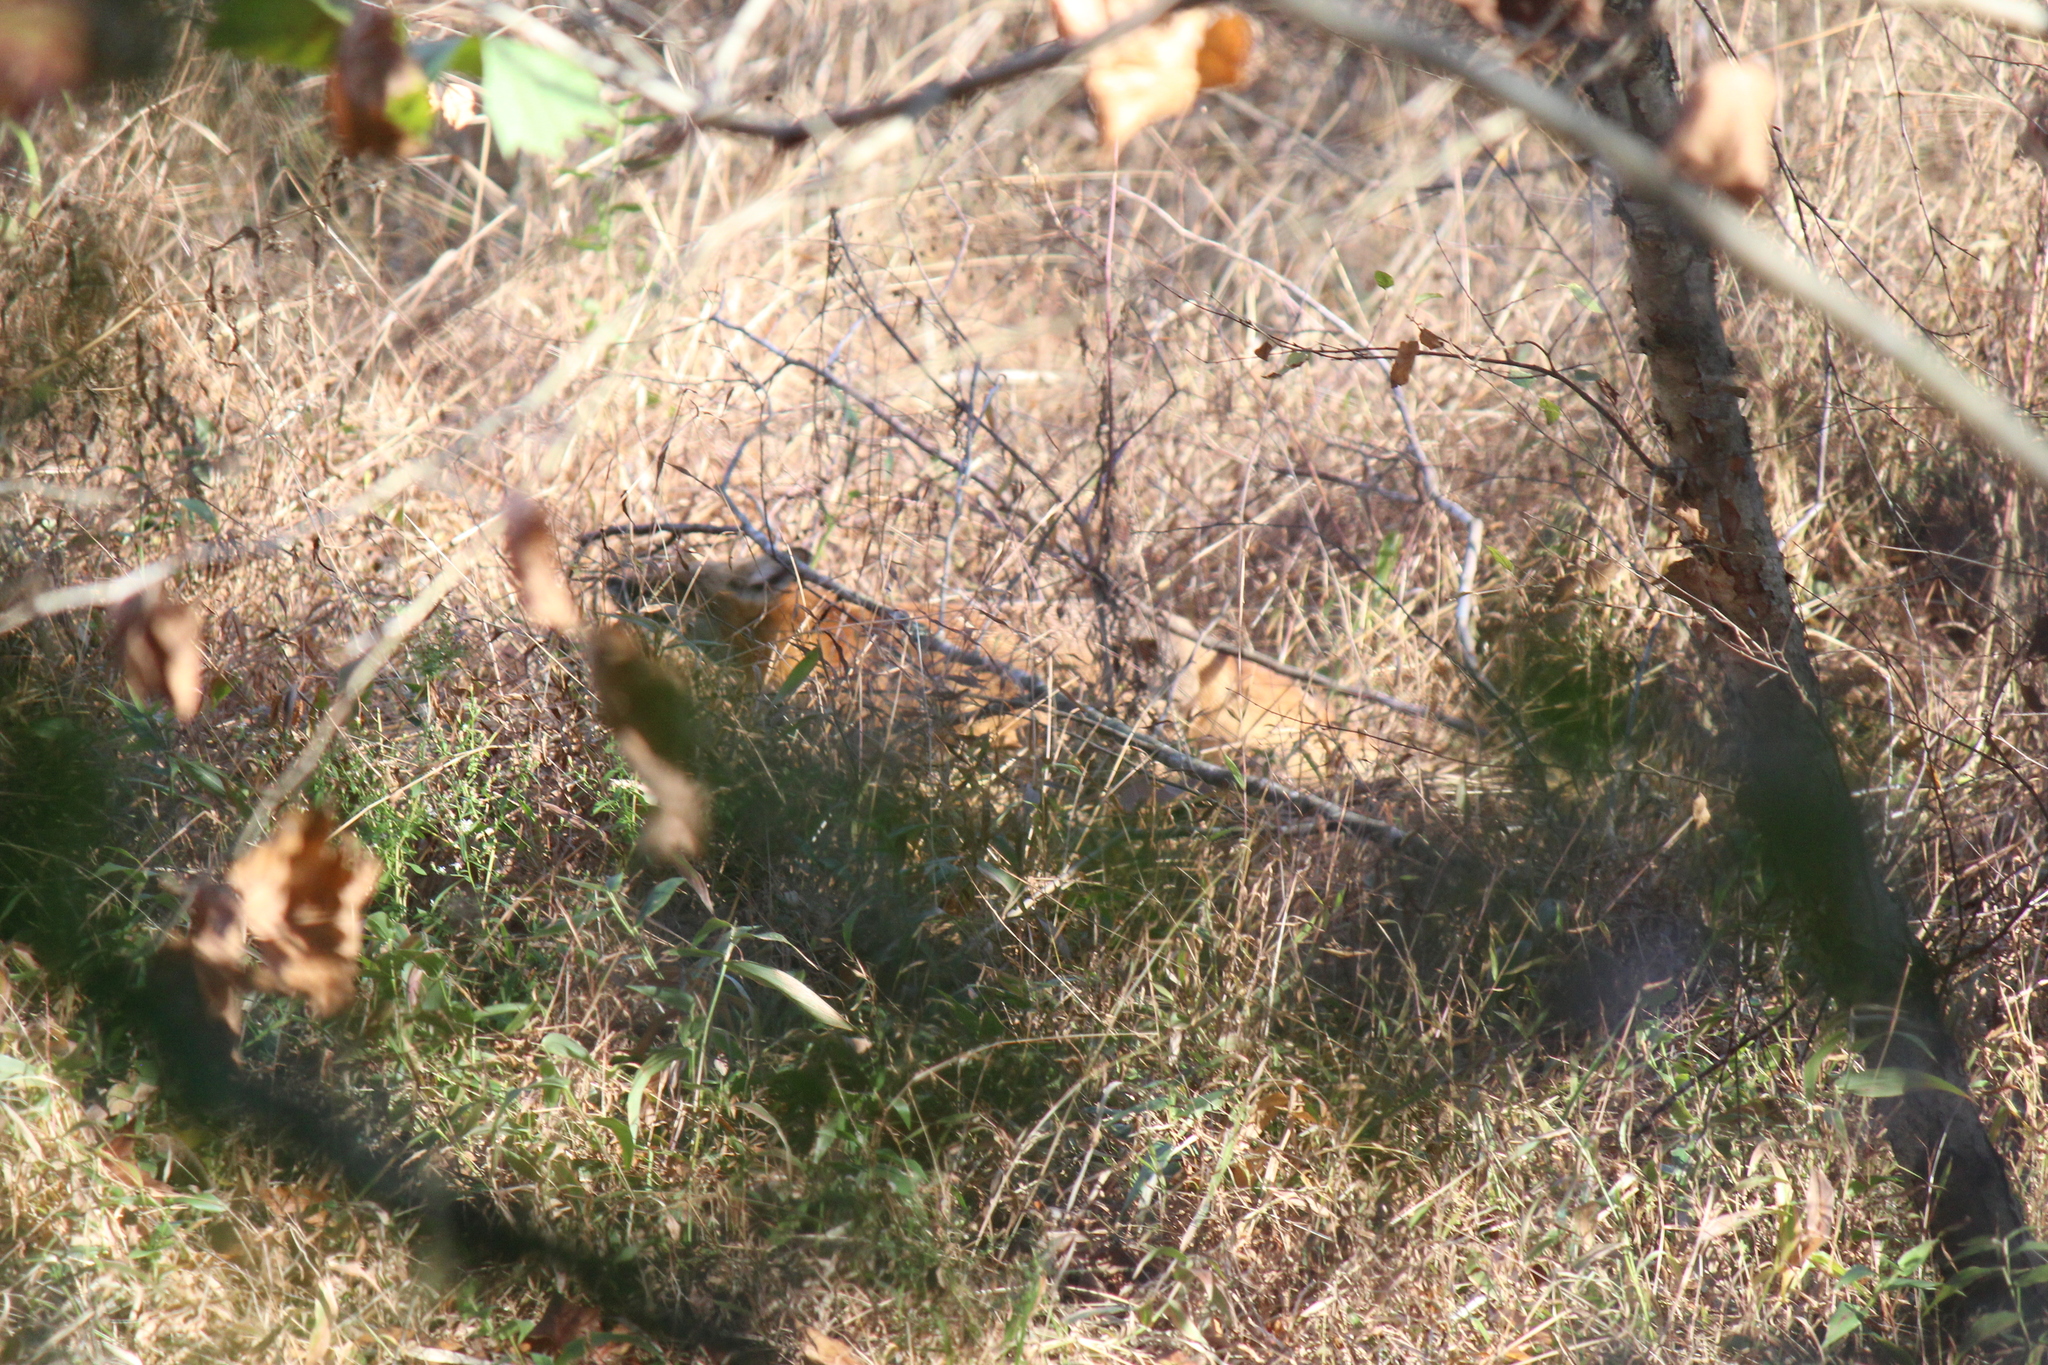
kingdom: Animalia
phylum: Chordata
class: Mammalia
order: Carnivora
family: Canidae
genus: Vulpes
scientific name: Vulpes vulpes
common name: Red fox
